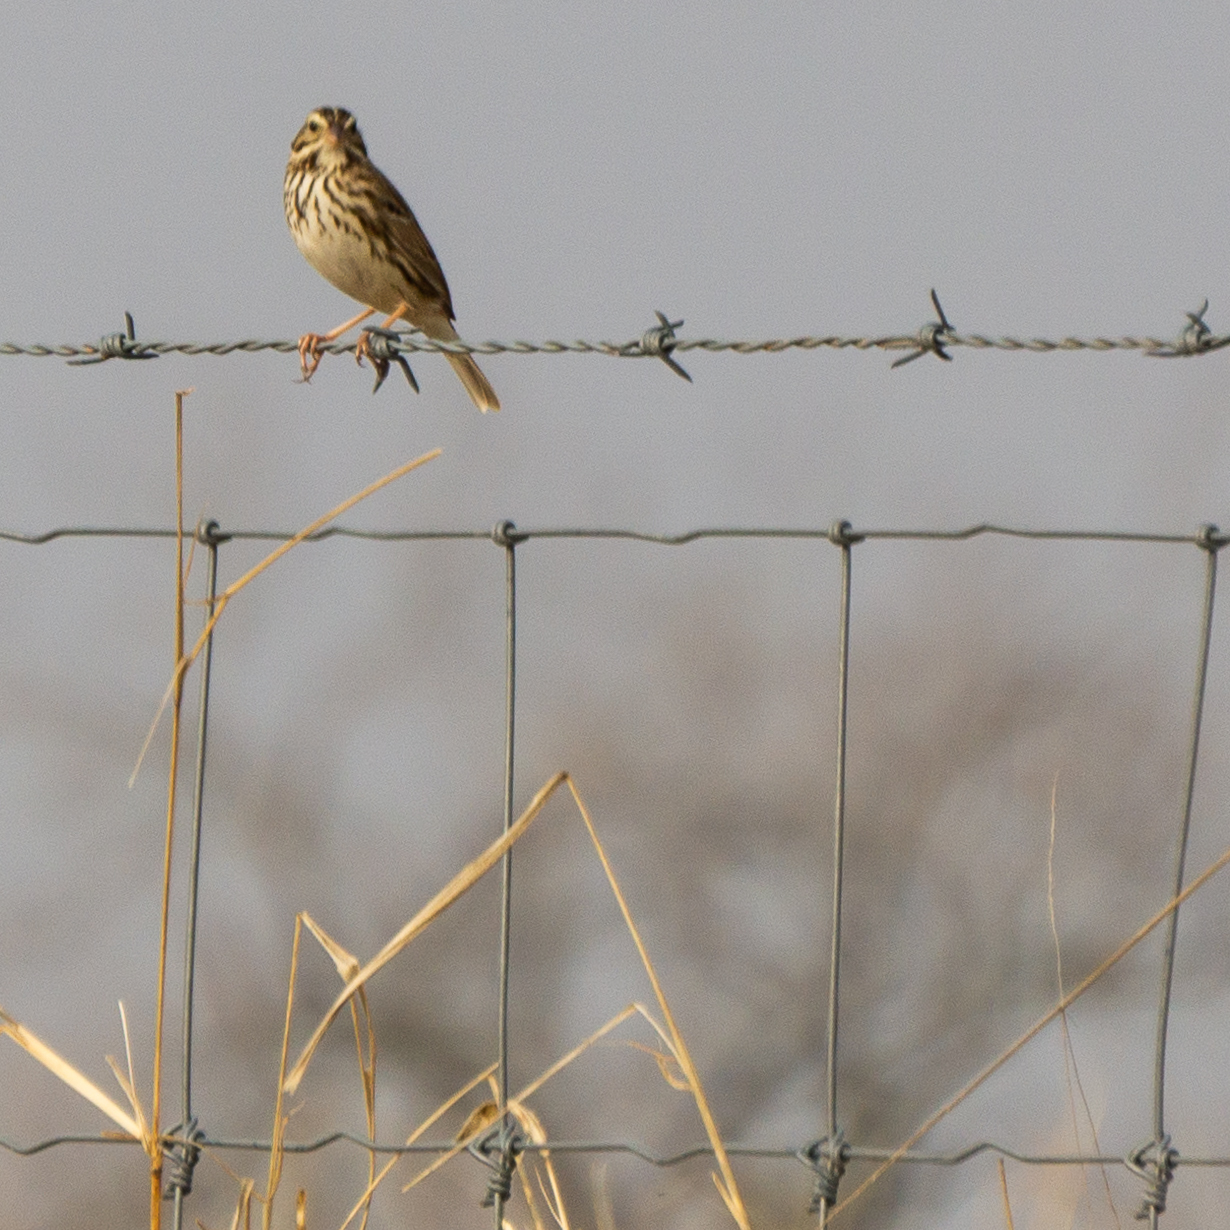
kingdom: Animalia
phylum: Chordata
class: Aves
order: Passeriformes
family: Passerellidae
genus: Passerculus
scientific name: Passerculus sandwichensis
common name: Savannah sparrow
